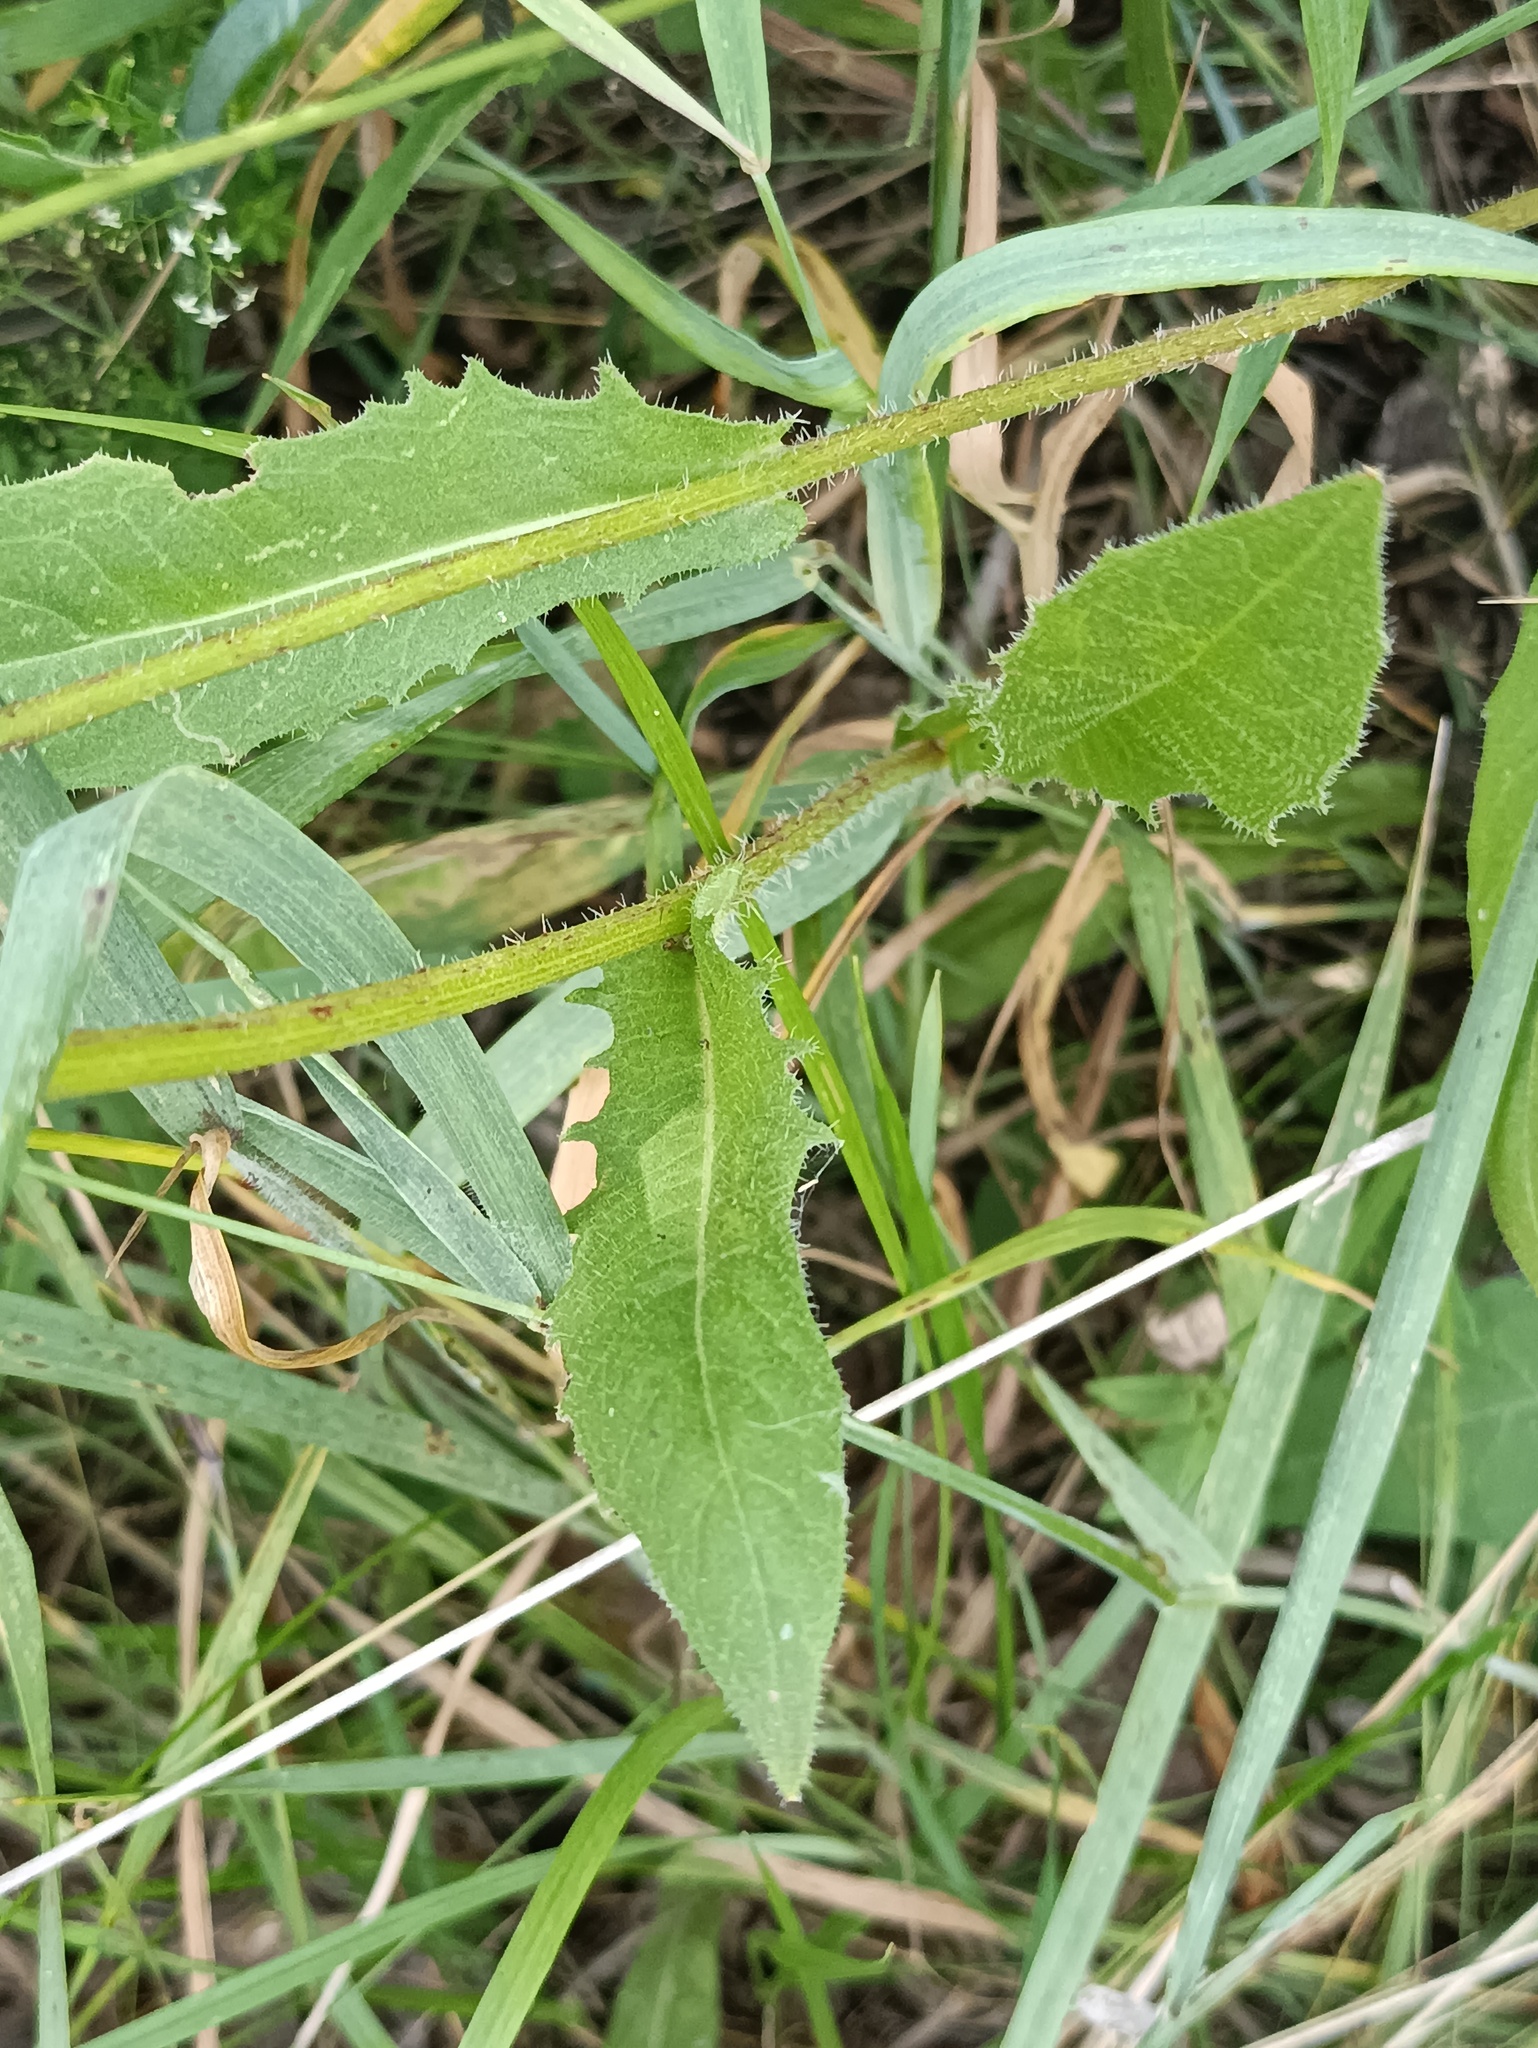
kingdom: Plantae
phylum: Tracheophyta
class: Magnoliopsida
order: Asterales
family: Asteraceae
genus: Picris
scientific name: Picris hieracioides
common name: Hawkweed oxtongue
